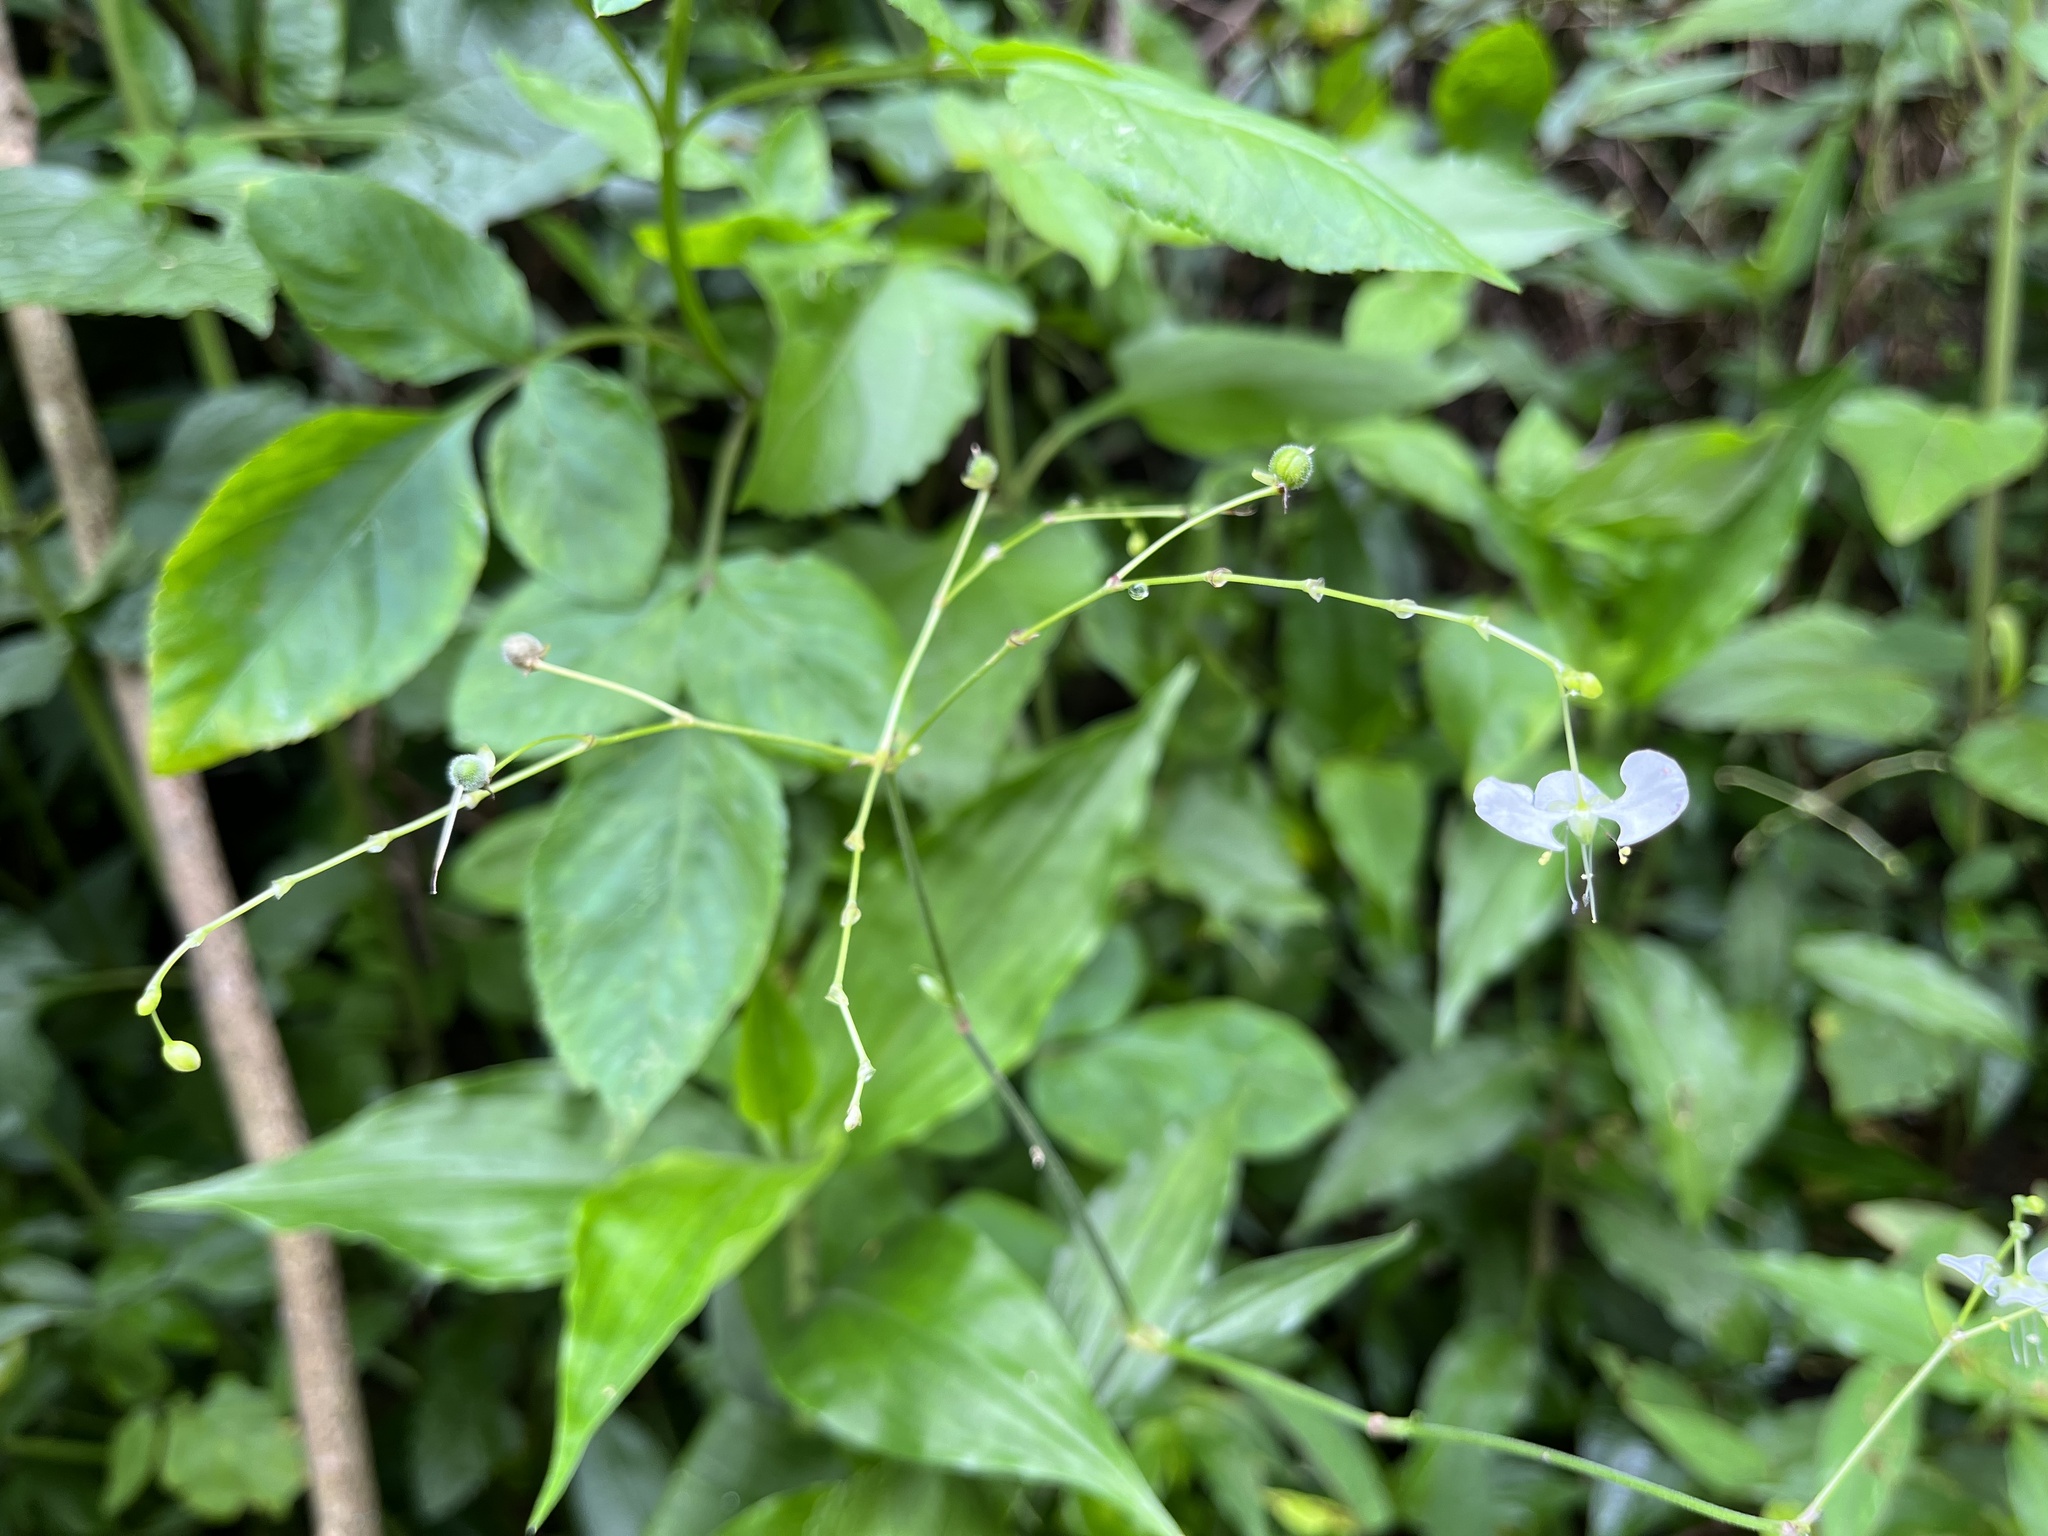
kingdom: Plantae
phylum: Tracheophyta
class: Liliopsida
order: Commelinales
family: Commelinaceae
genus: Rhopalephora
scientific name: Rhopalephora scaberrima
